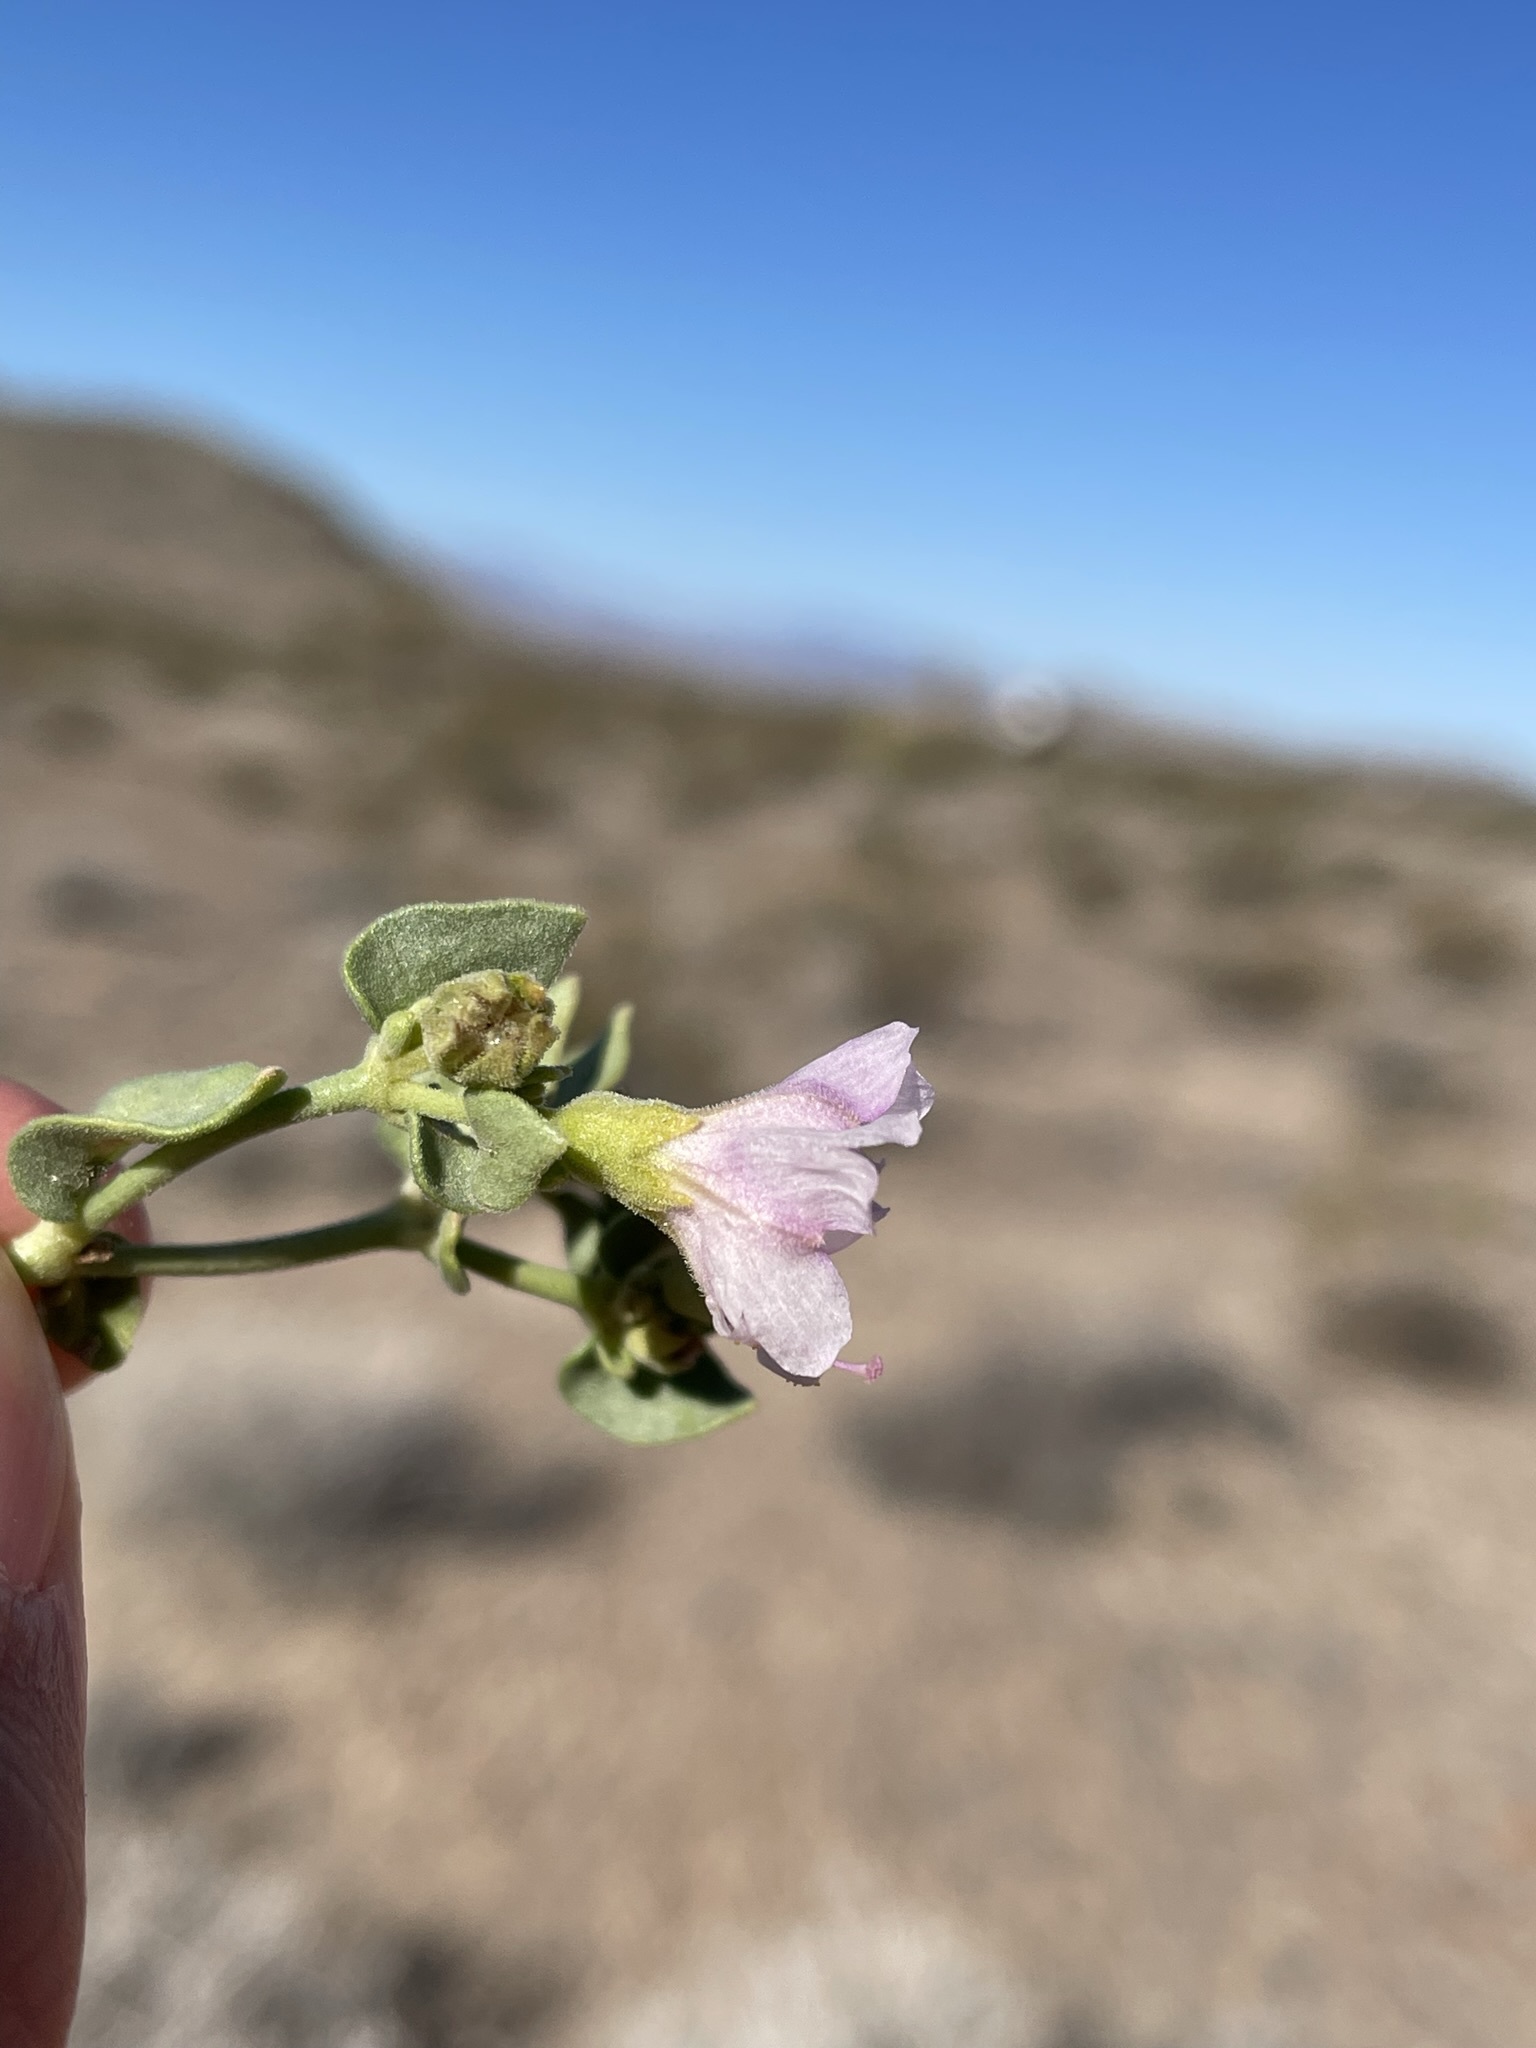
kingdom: Plantae
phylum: Tracheophyta
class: Magnoliopsida
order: Caryophyllales
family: Nyctaginaceae
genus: Mirabilis
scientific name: Mirabilis laevis
